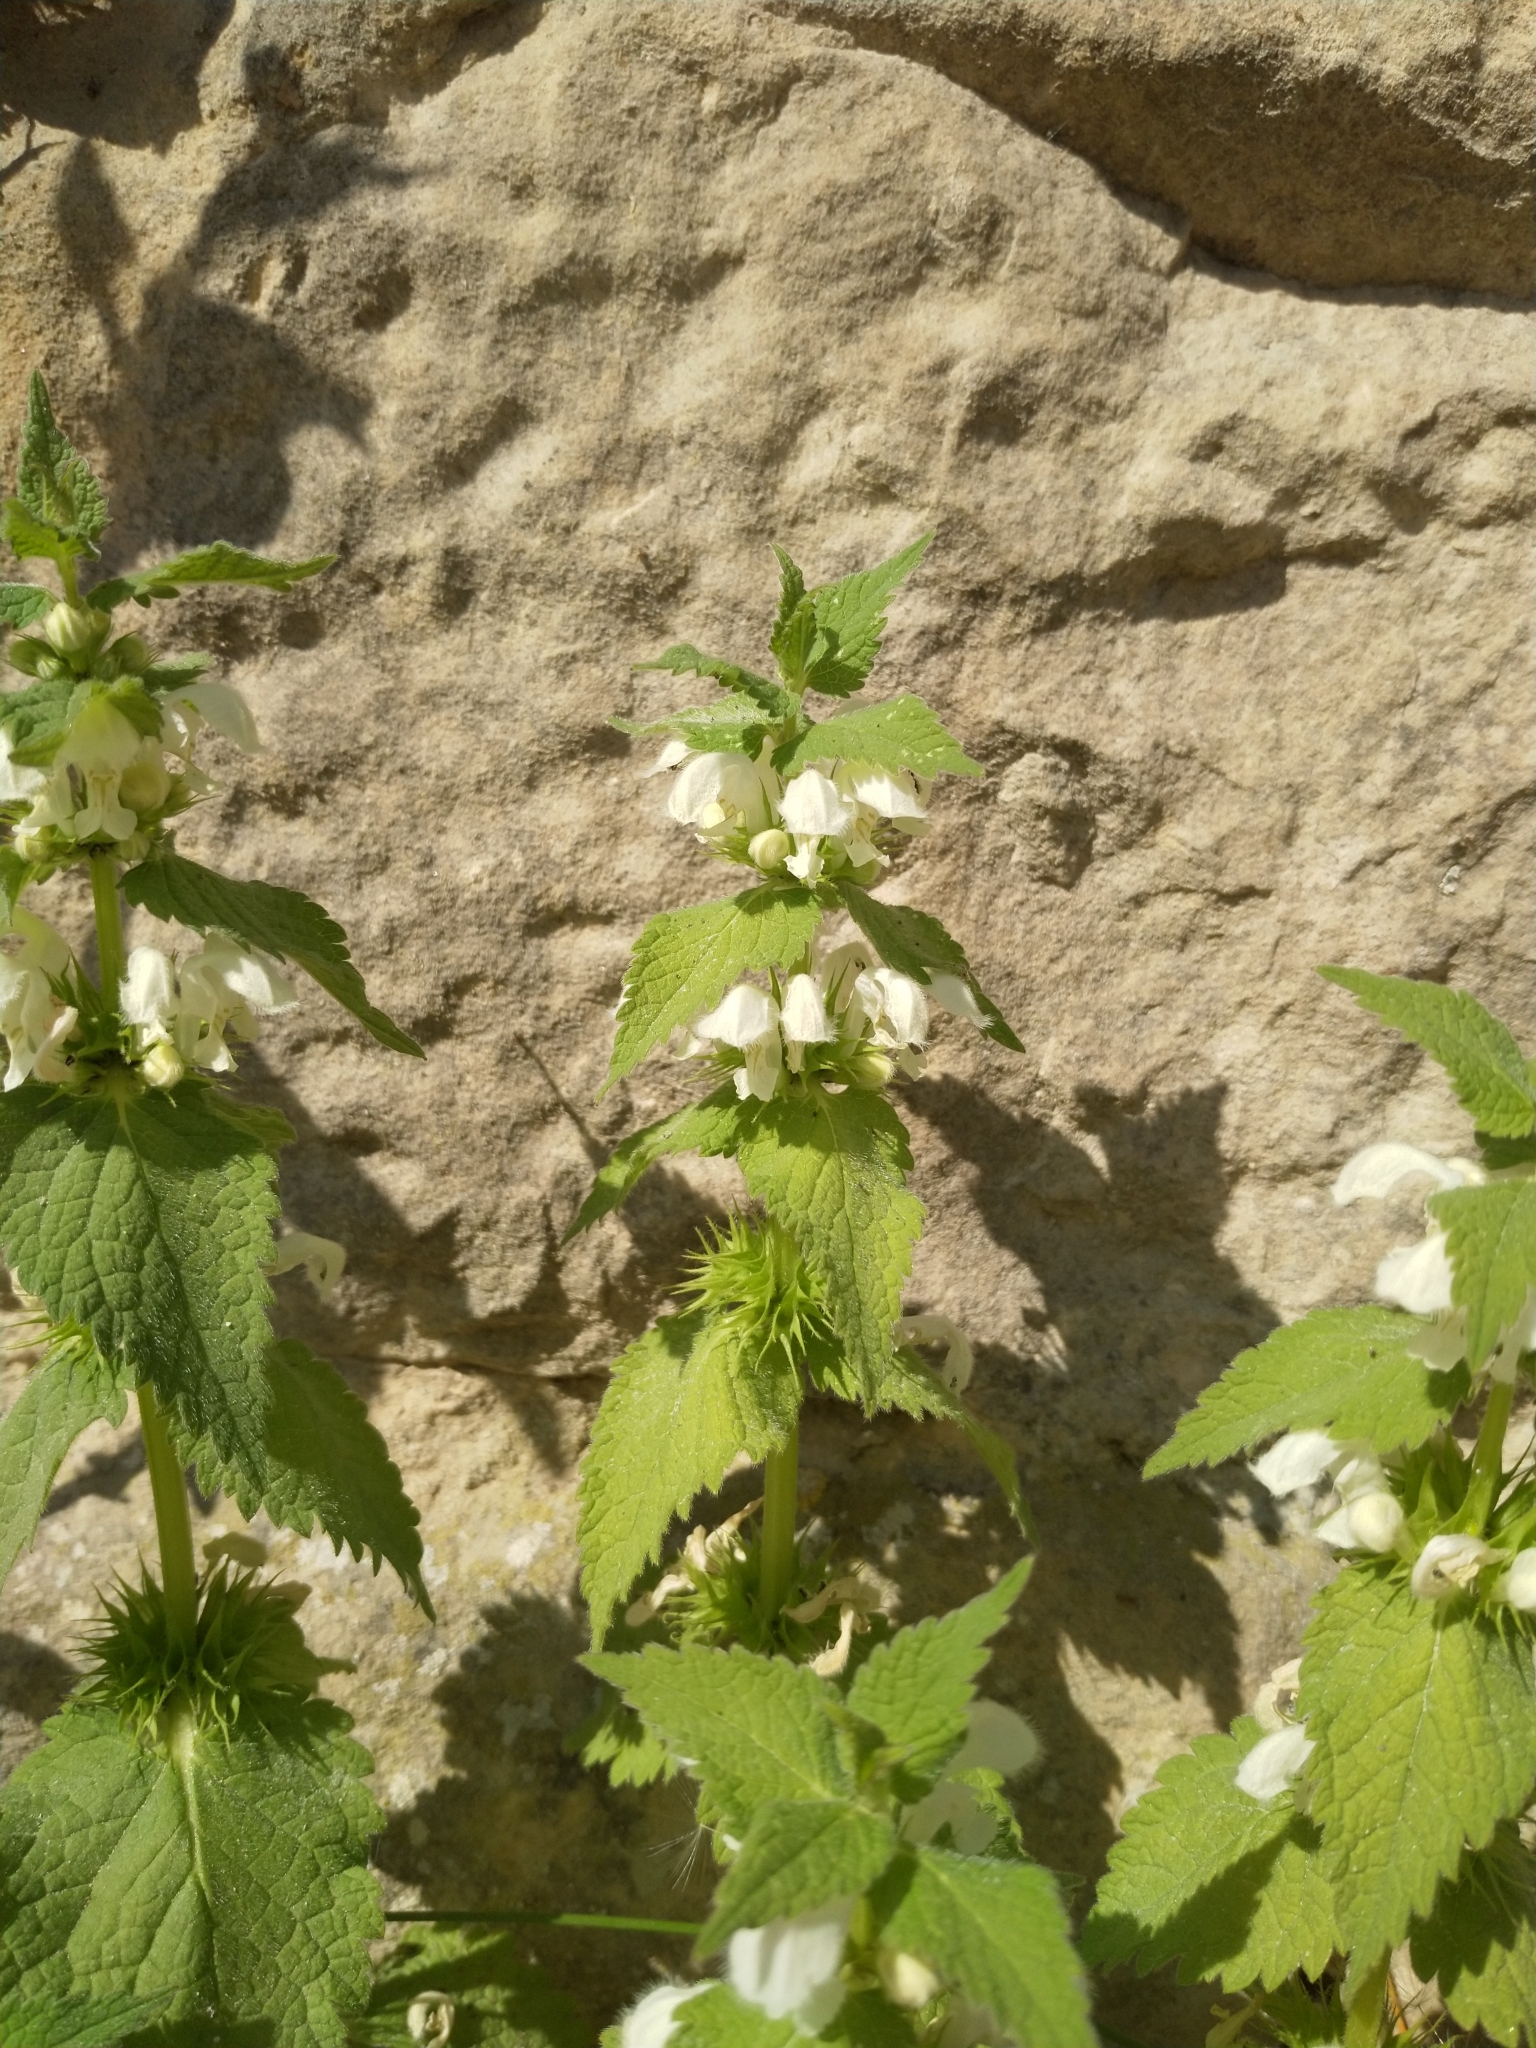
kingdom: Plantae
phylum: Tracheophyta
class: Magnoliopsida
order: Lamiales
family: Lamiaceae
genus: Lamium
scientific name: Lamium album
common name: White dead-nettle
